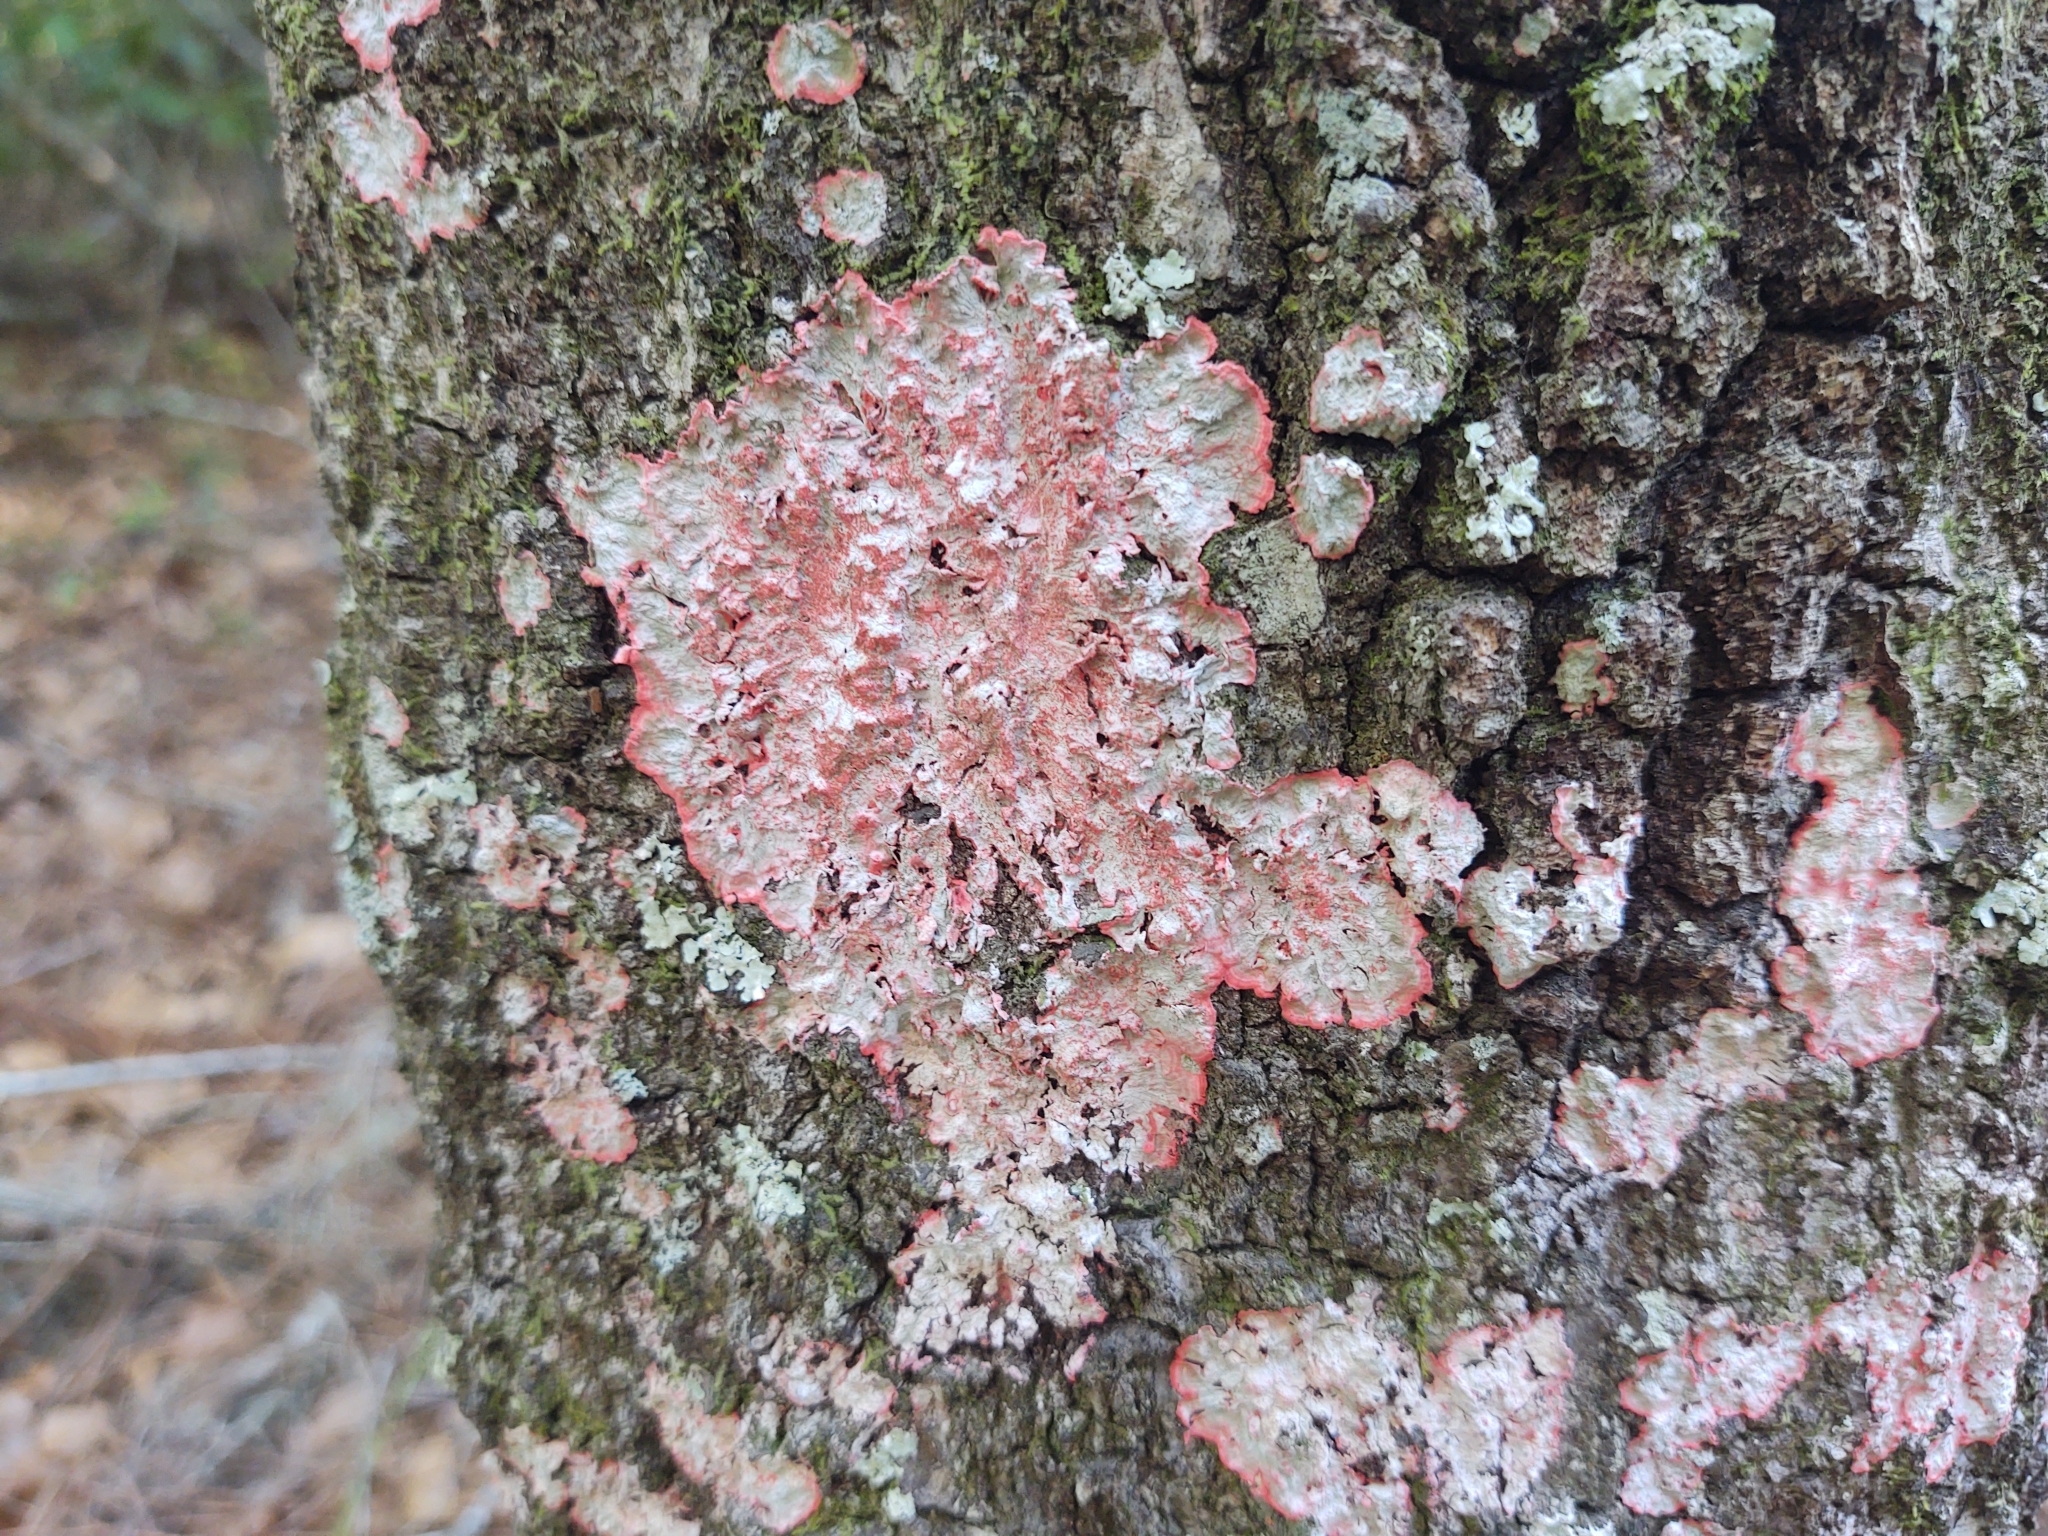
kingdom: Fungi
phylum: Ascomycota
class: Arthoniomycetes
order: Arthoniales
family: Arthoniaceae
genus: Herpothallon
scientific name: Herpothallon rubrocinctum
